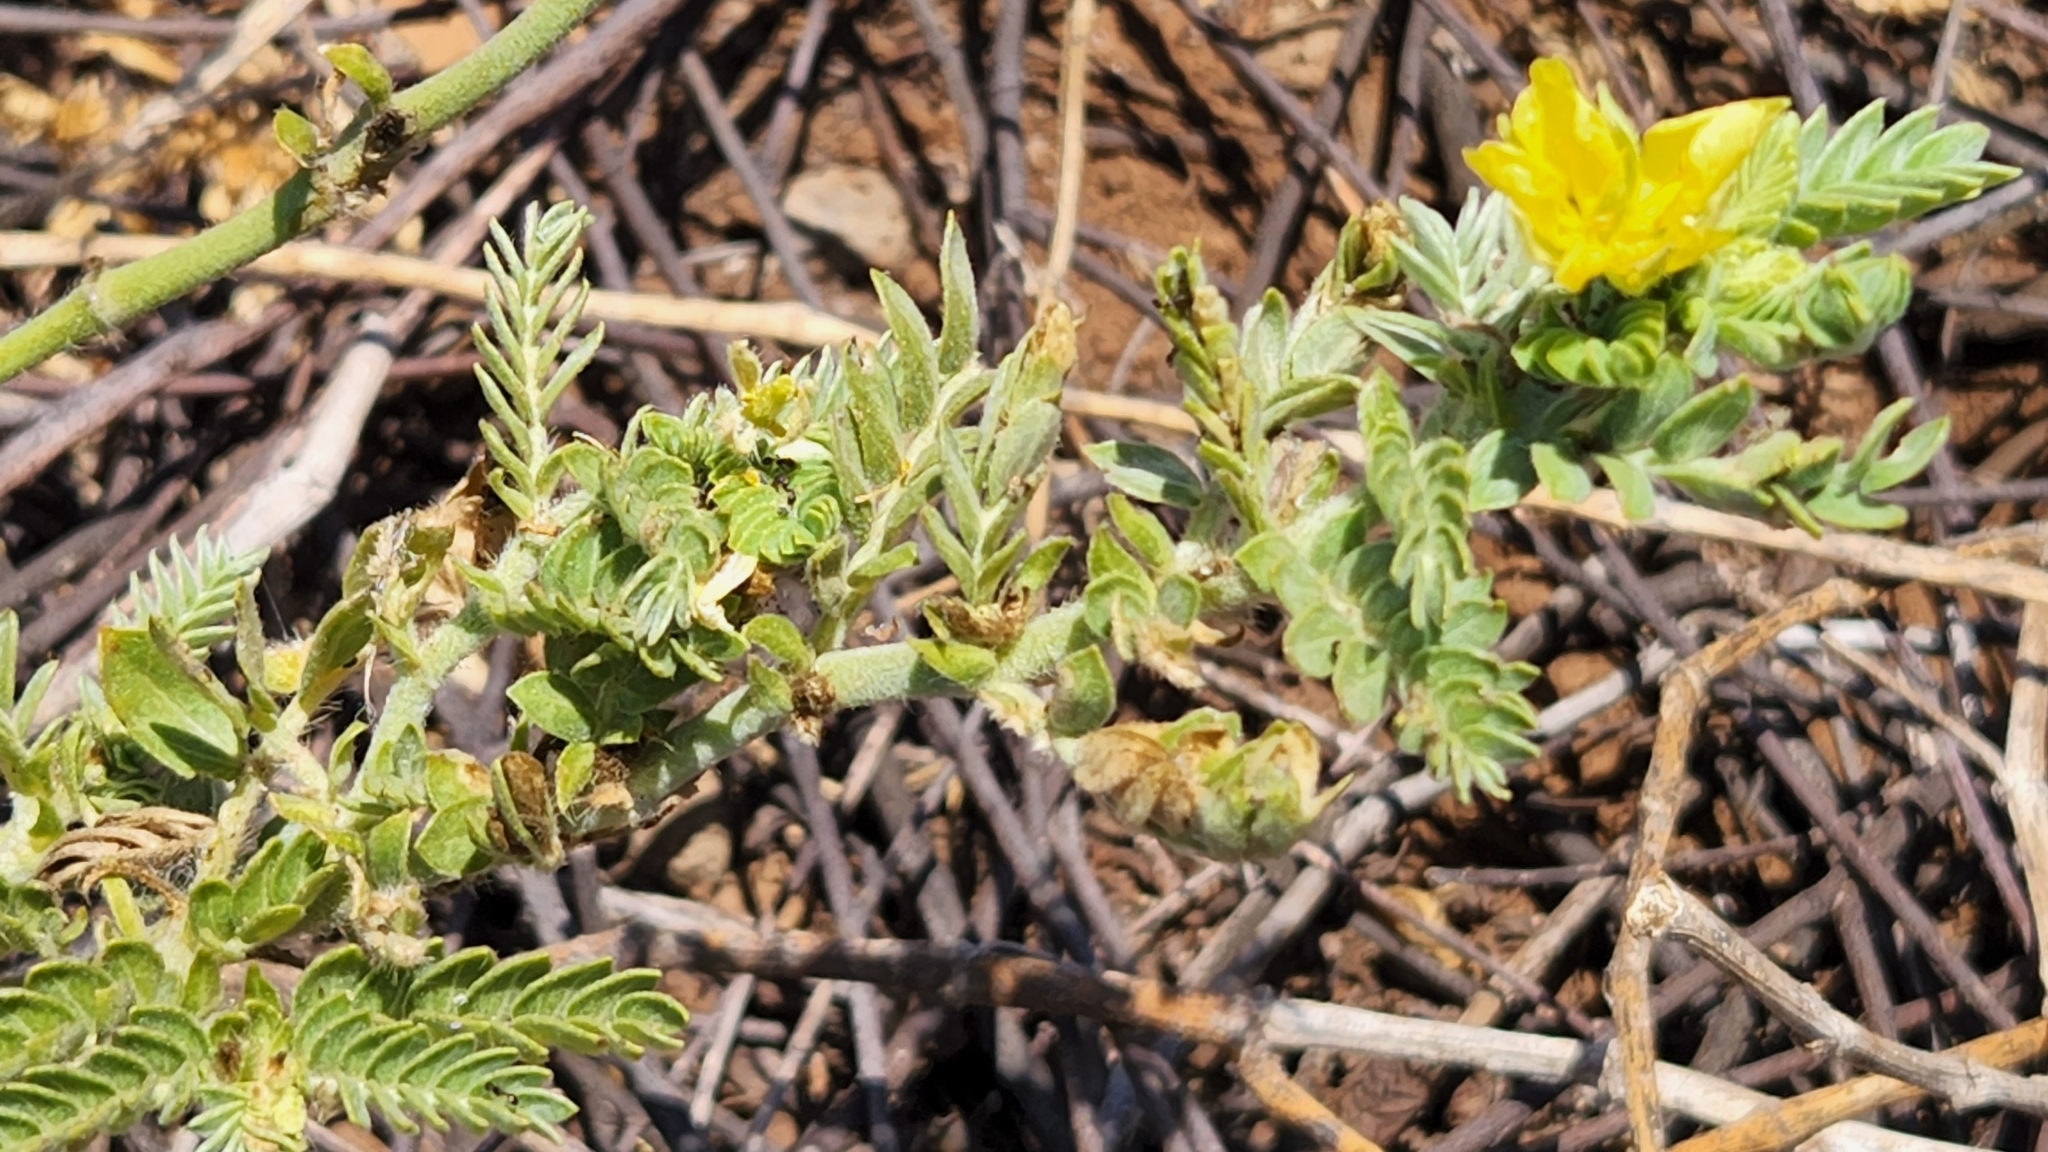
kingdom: Plantae
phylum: Tracheophyta
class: Magnoliopsida
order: Zygophyllales
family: Zygophyllaceae
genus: Tribulus
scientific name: Tribulus cistoides
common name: Jamaican feverplant
